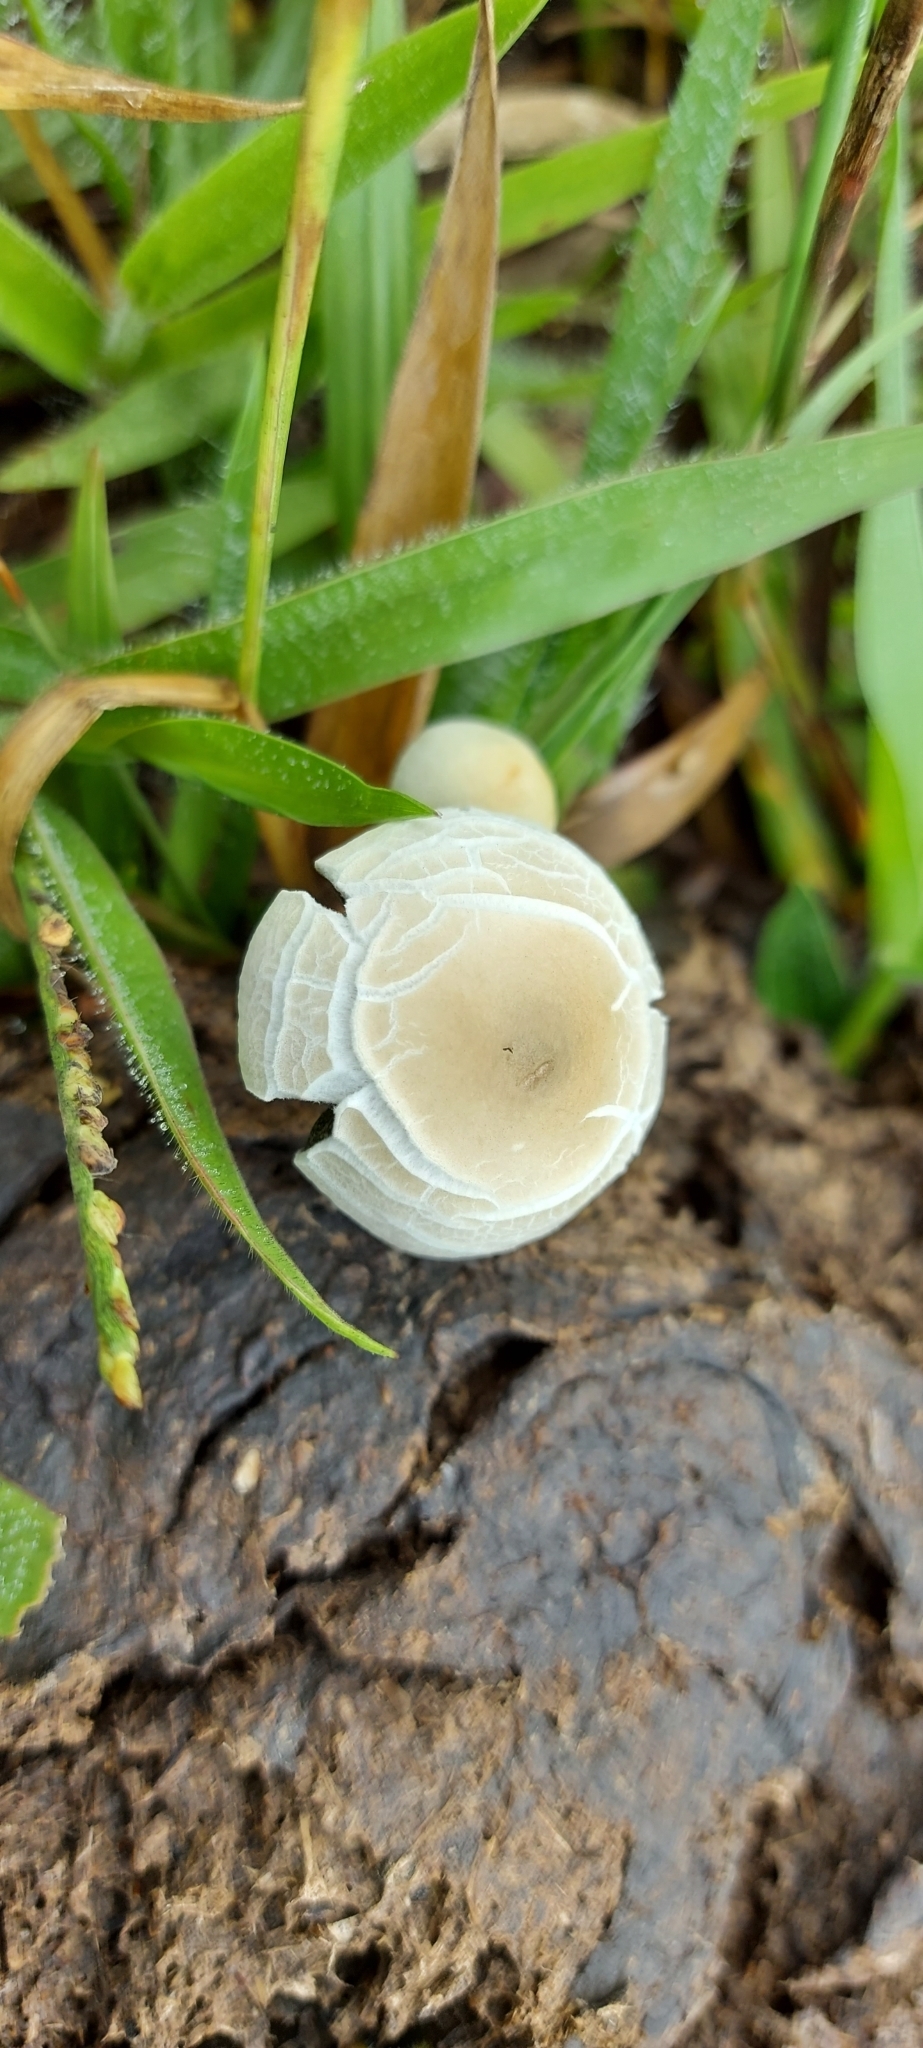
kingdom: Fungi
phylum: Basidiomycota
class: Agaricomycetes
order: Agaricales
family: Bolbitiaceae
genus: Panaeolus
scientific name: Panaeolus cyanescens
